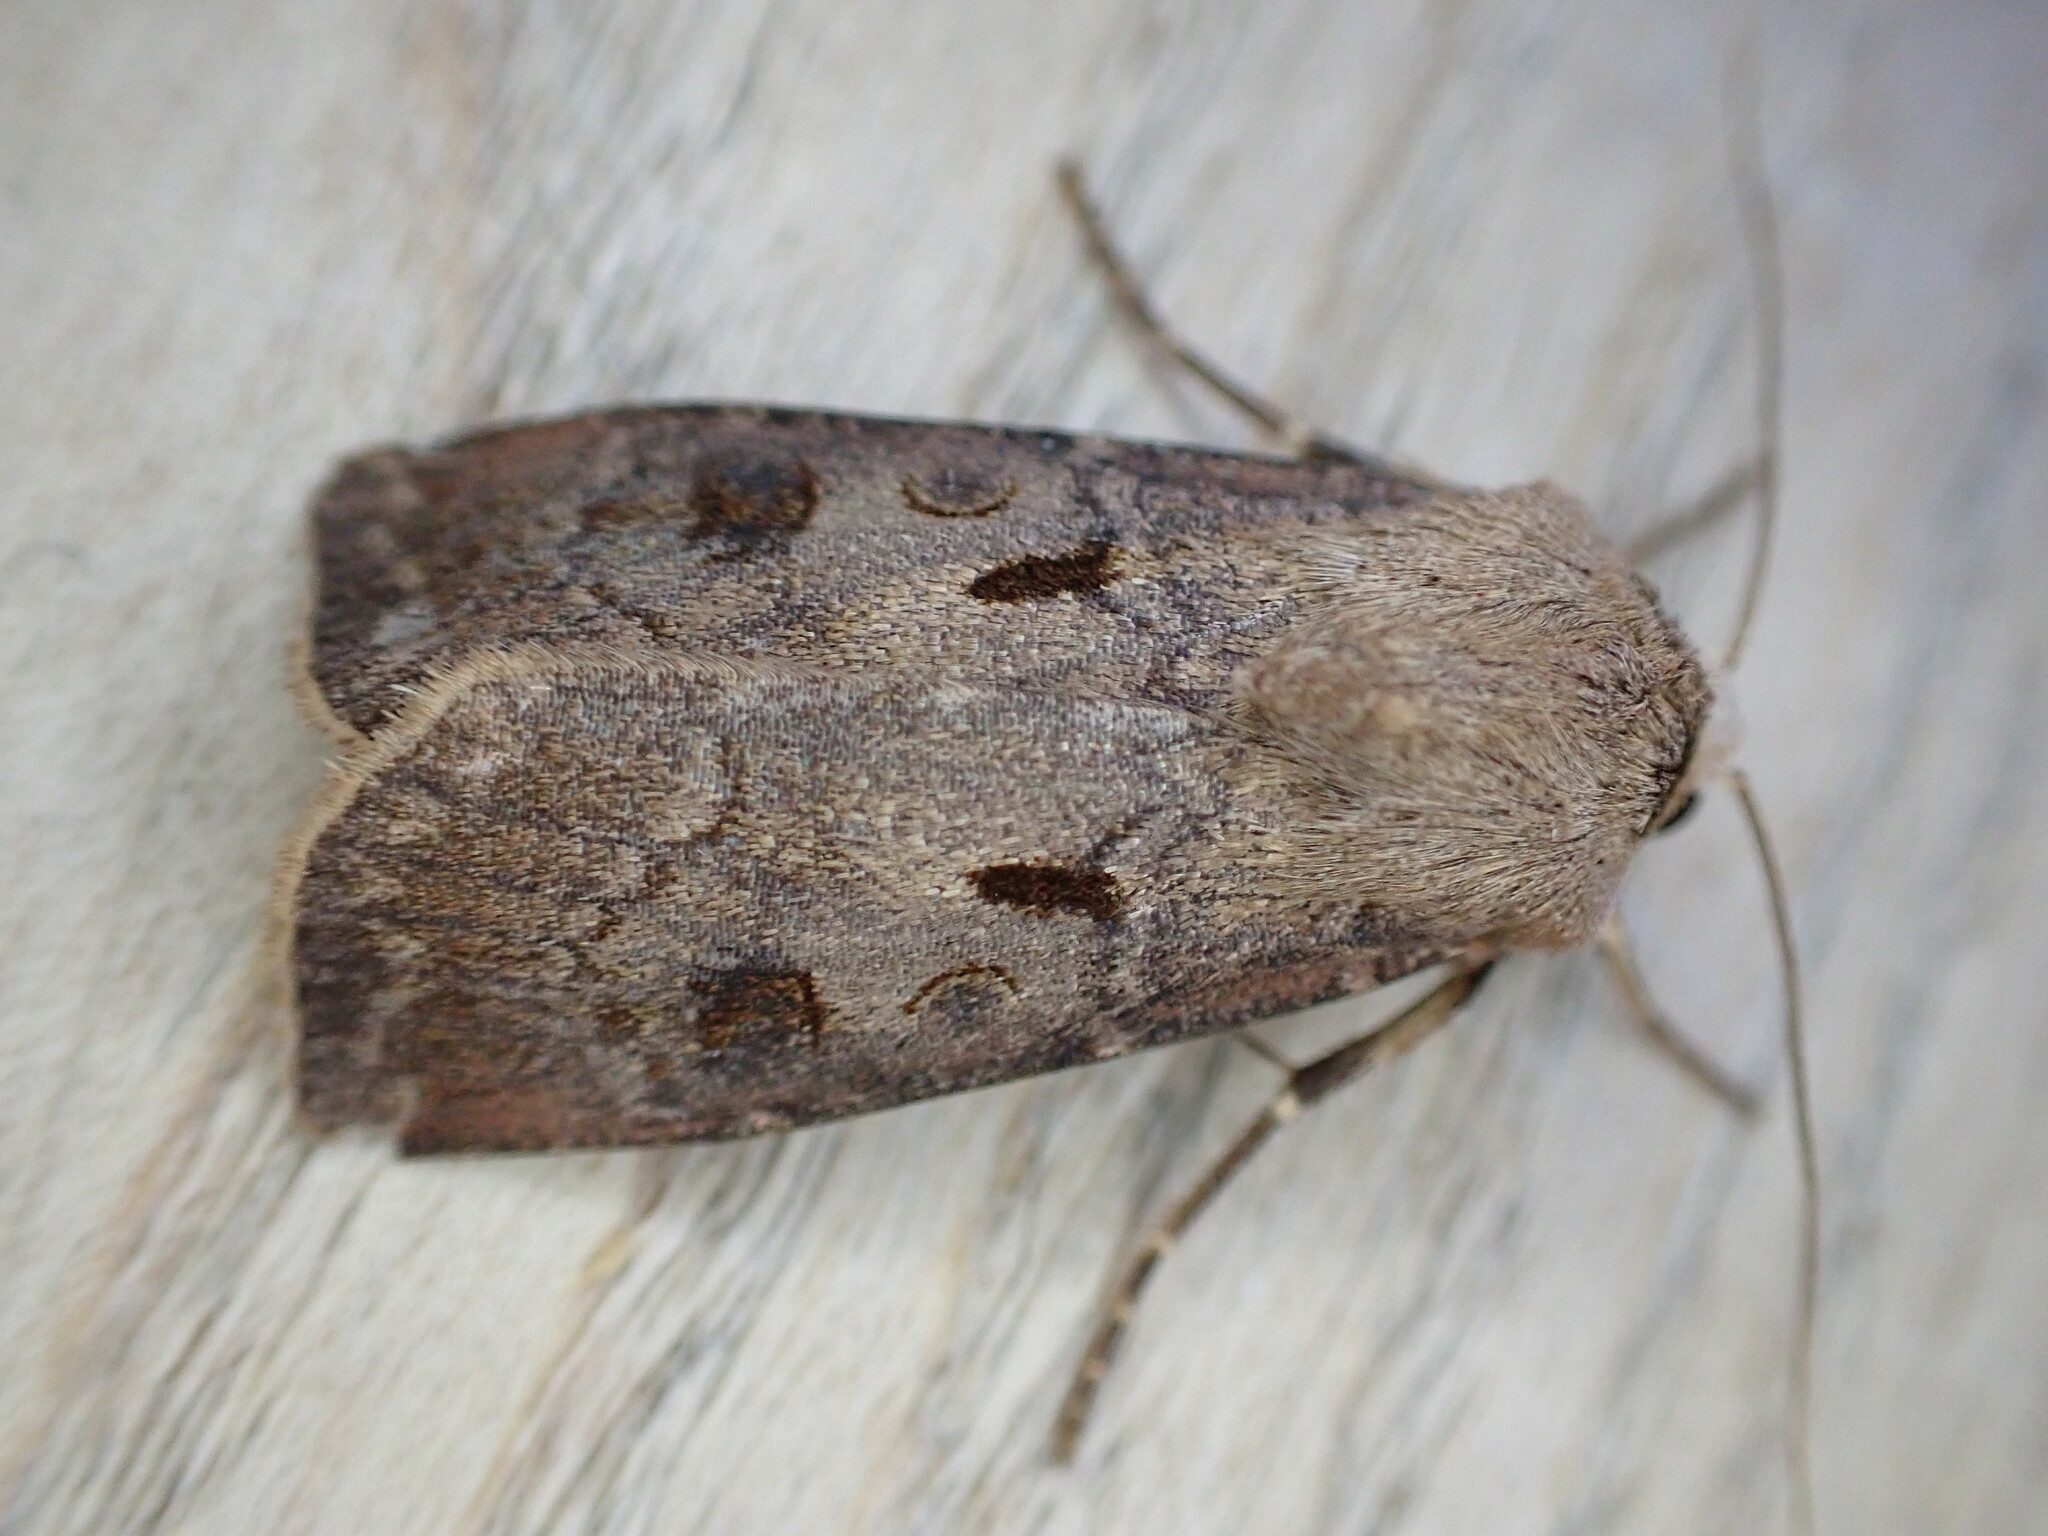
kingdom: Animalia
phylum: Arthropoda
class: Insecta
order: Lepidoptera
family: Noctuidae
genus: Agrotis
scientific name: Agrotis exclamationis
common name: Heart and dart
